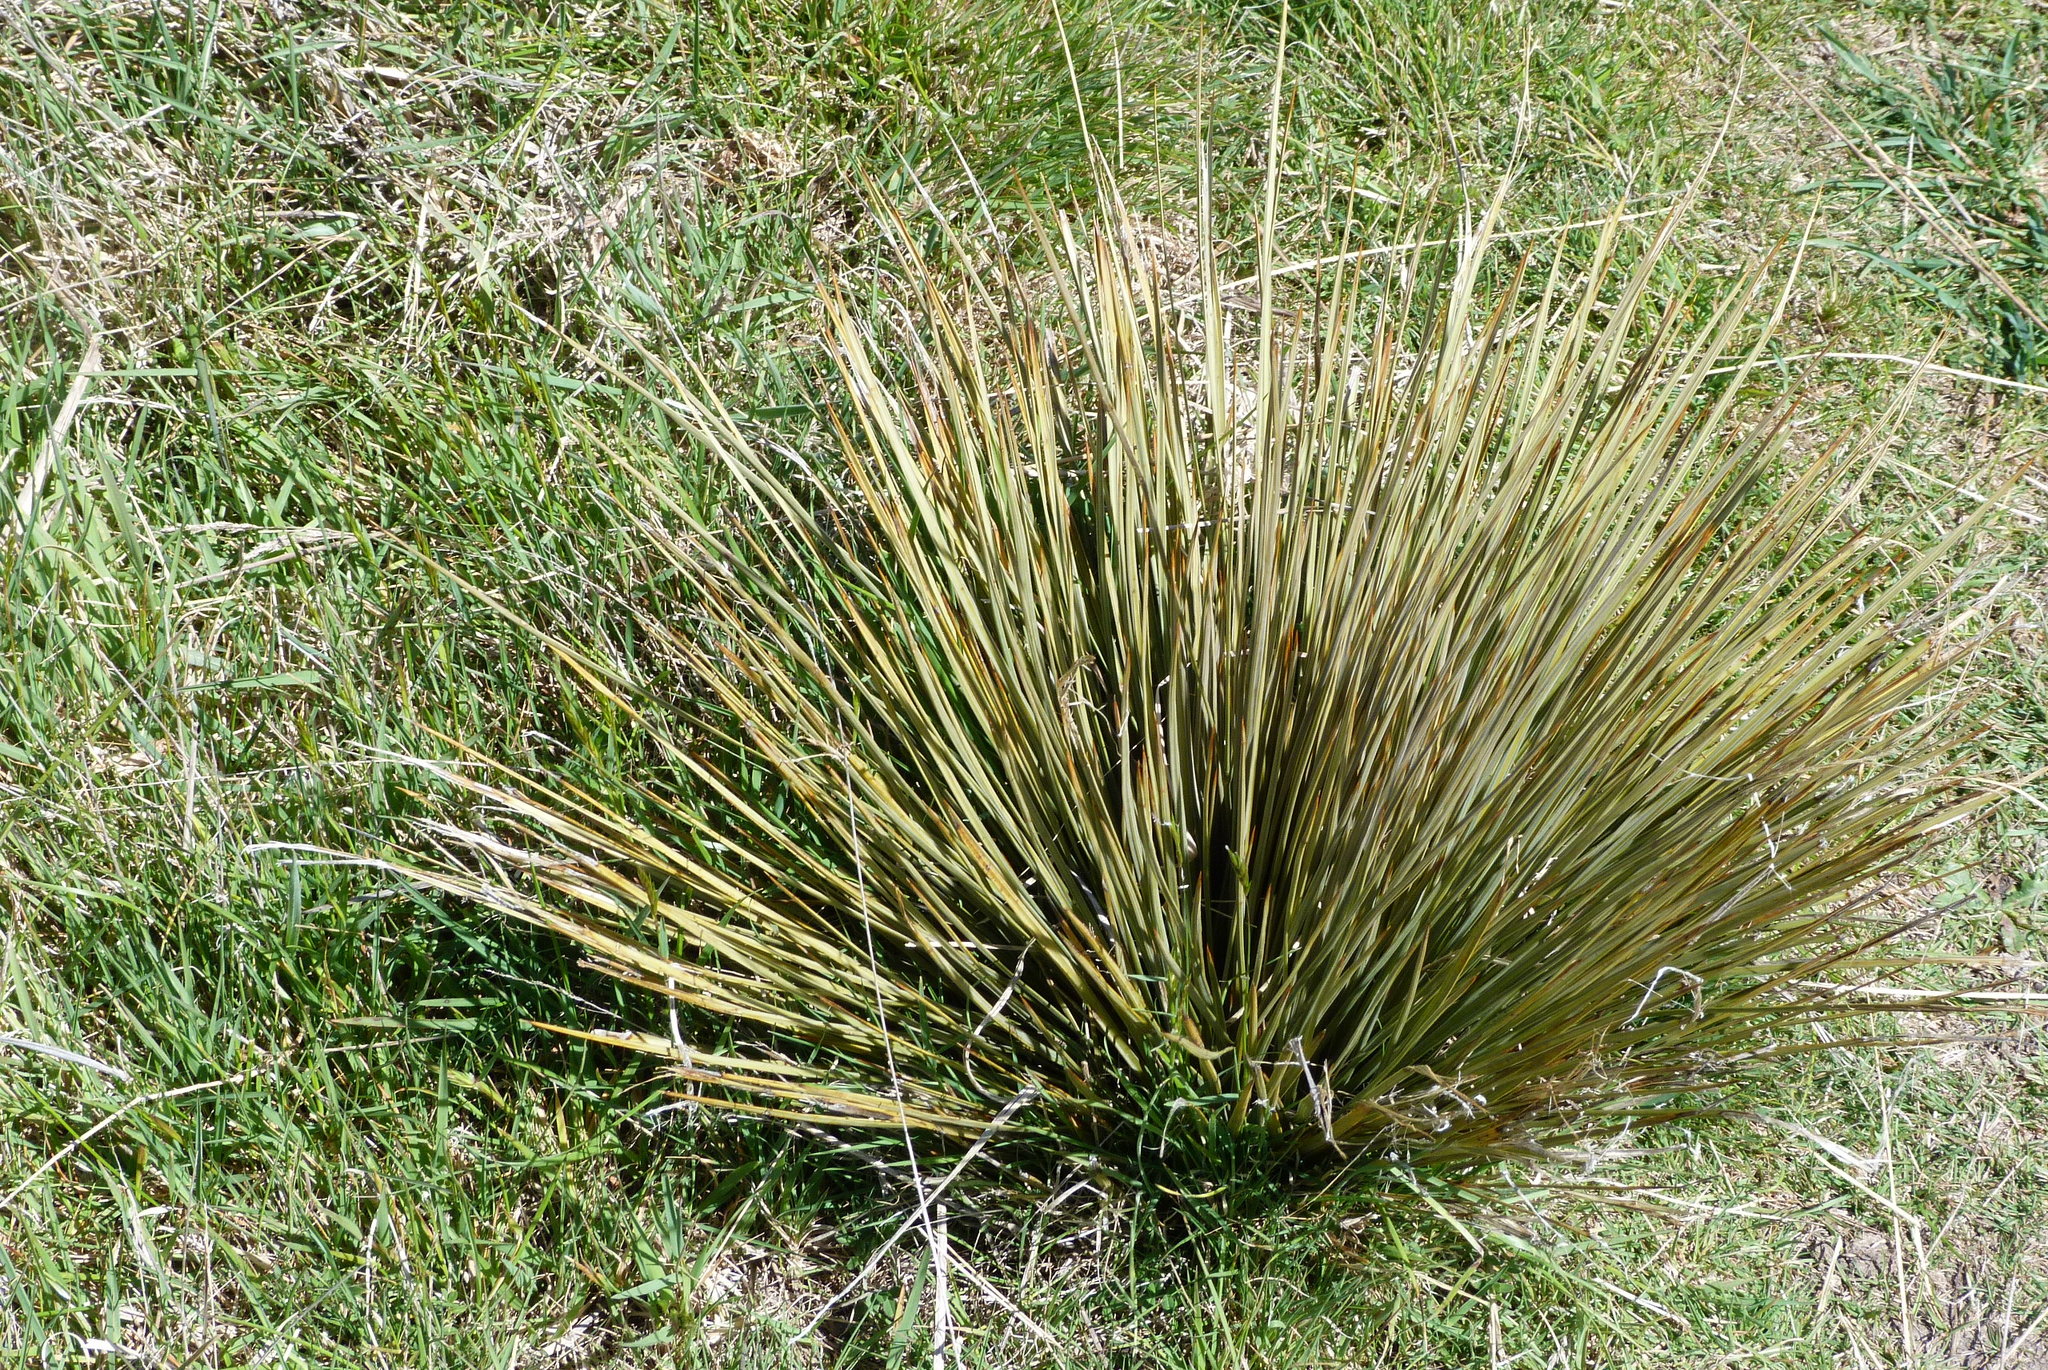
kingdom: Plantae
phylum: Tracheophyta
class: Magnoliopsida
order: Apiales
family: Apiaceae
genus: Aciphylla
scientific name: Aciphylla subflabellata
